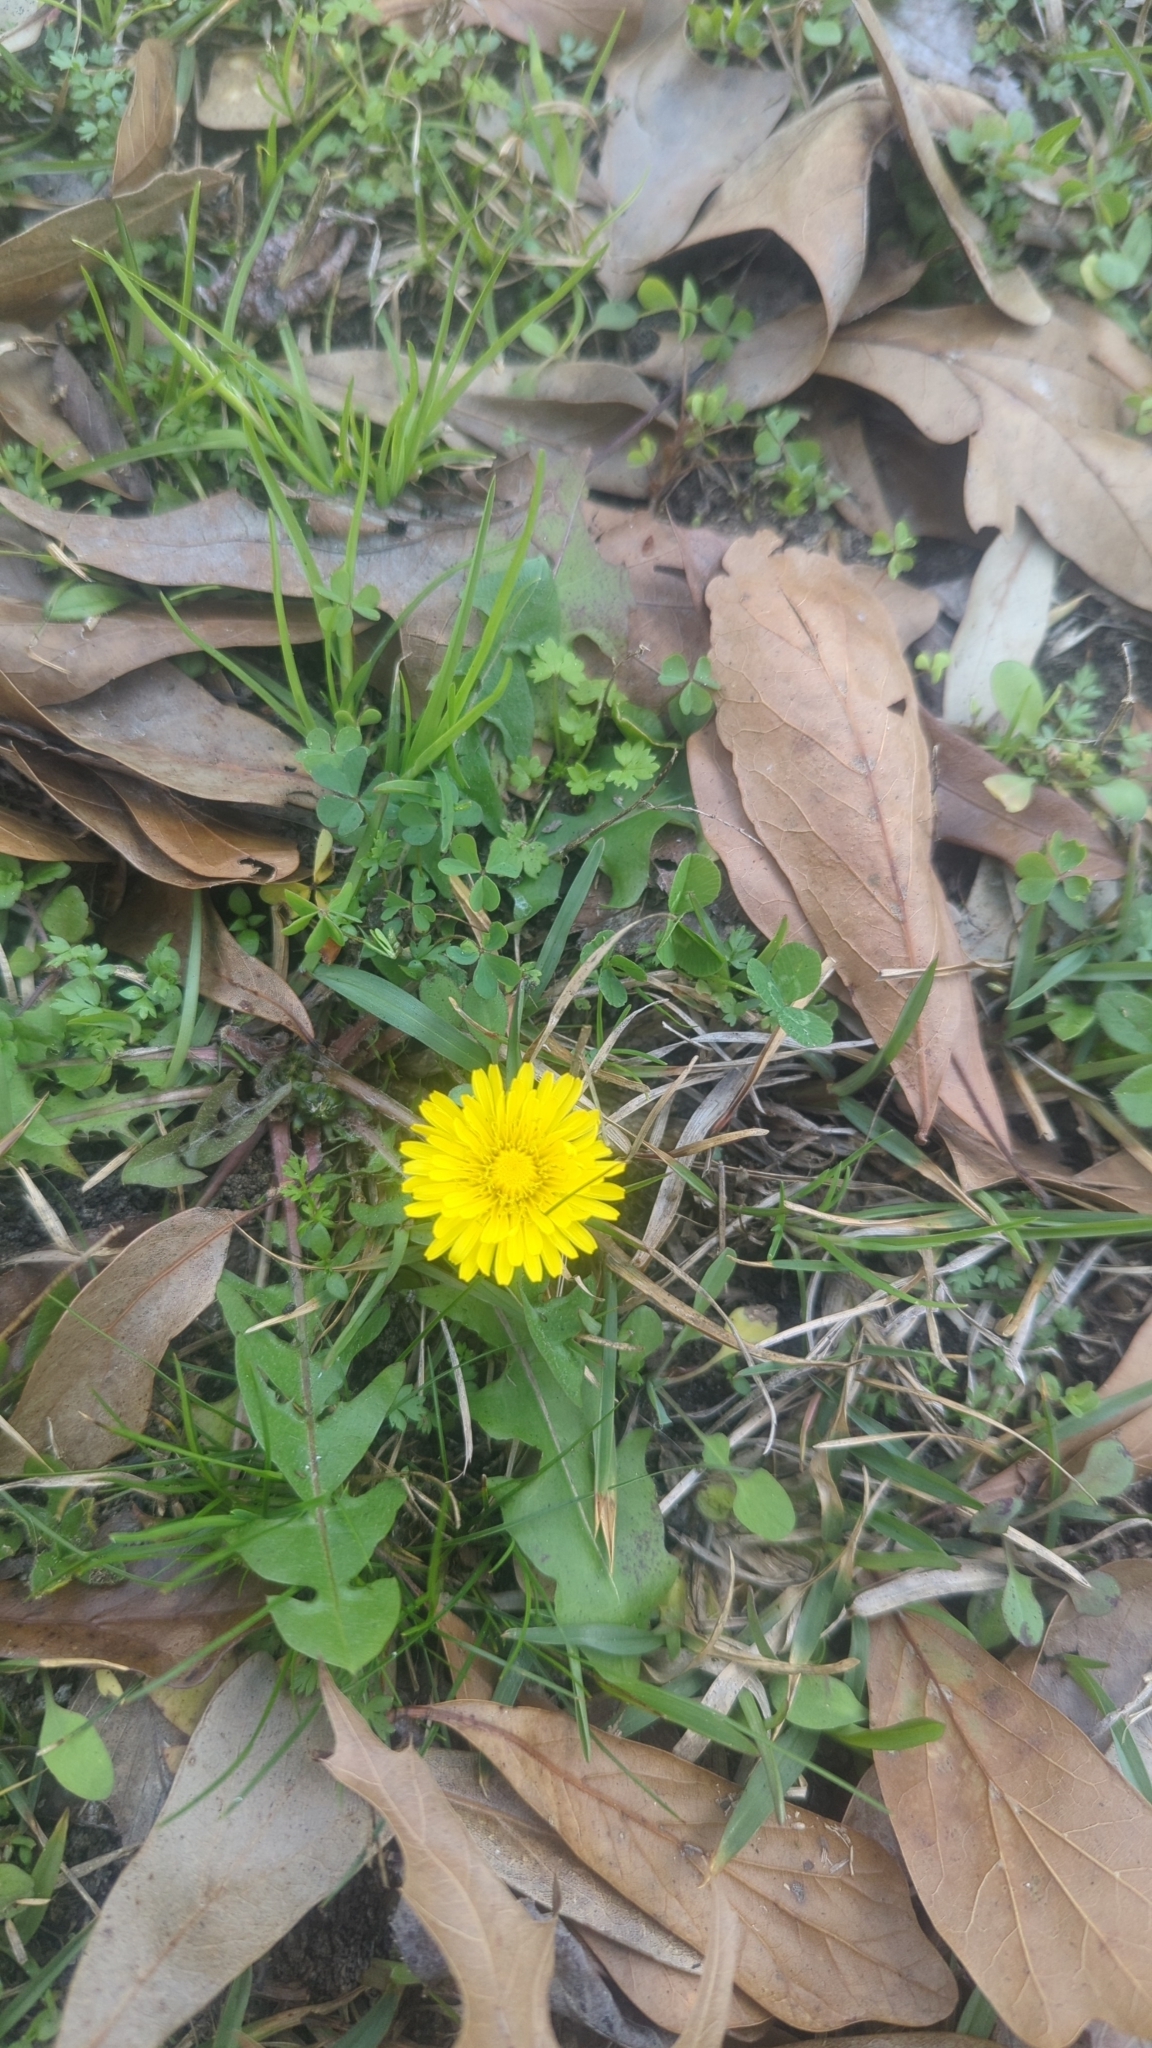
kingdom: Plantae
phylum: Tracheophyta
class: Magnoliopsida
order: Asterales
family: Asteraceae
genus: Taraxacum
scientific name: Taraxacum officinale
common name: Common dandelion
